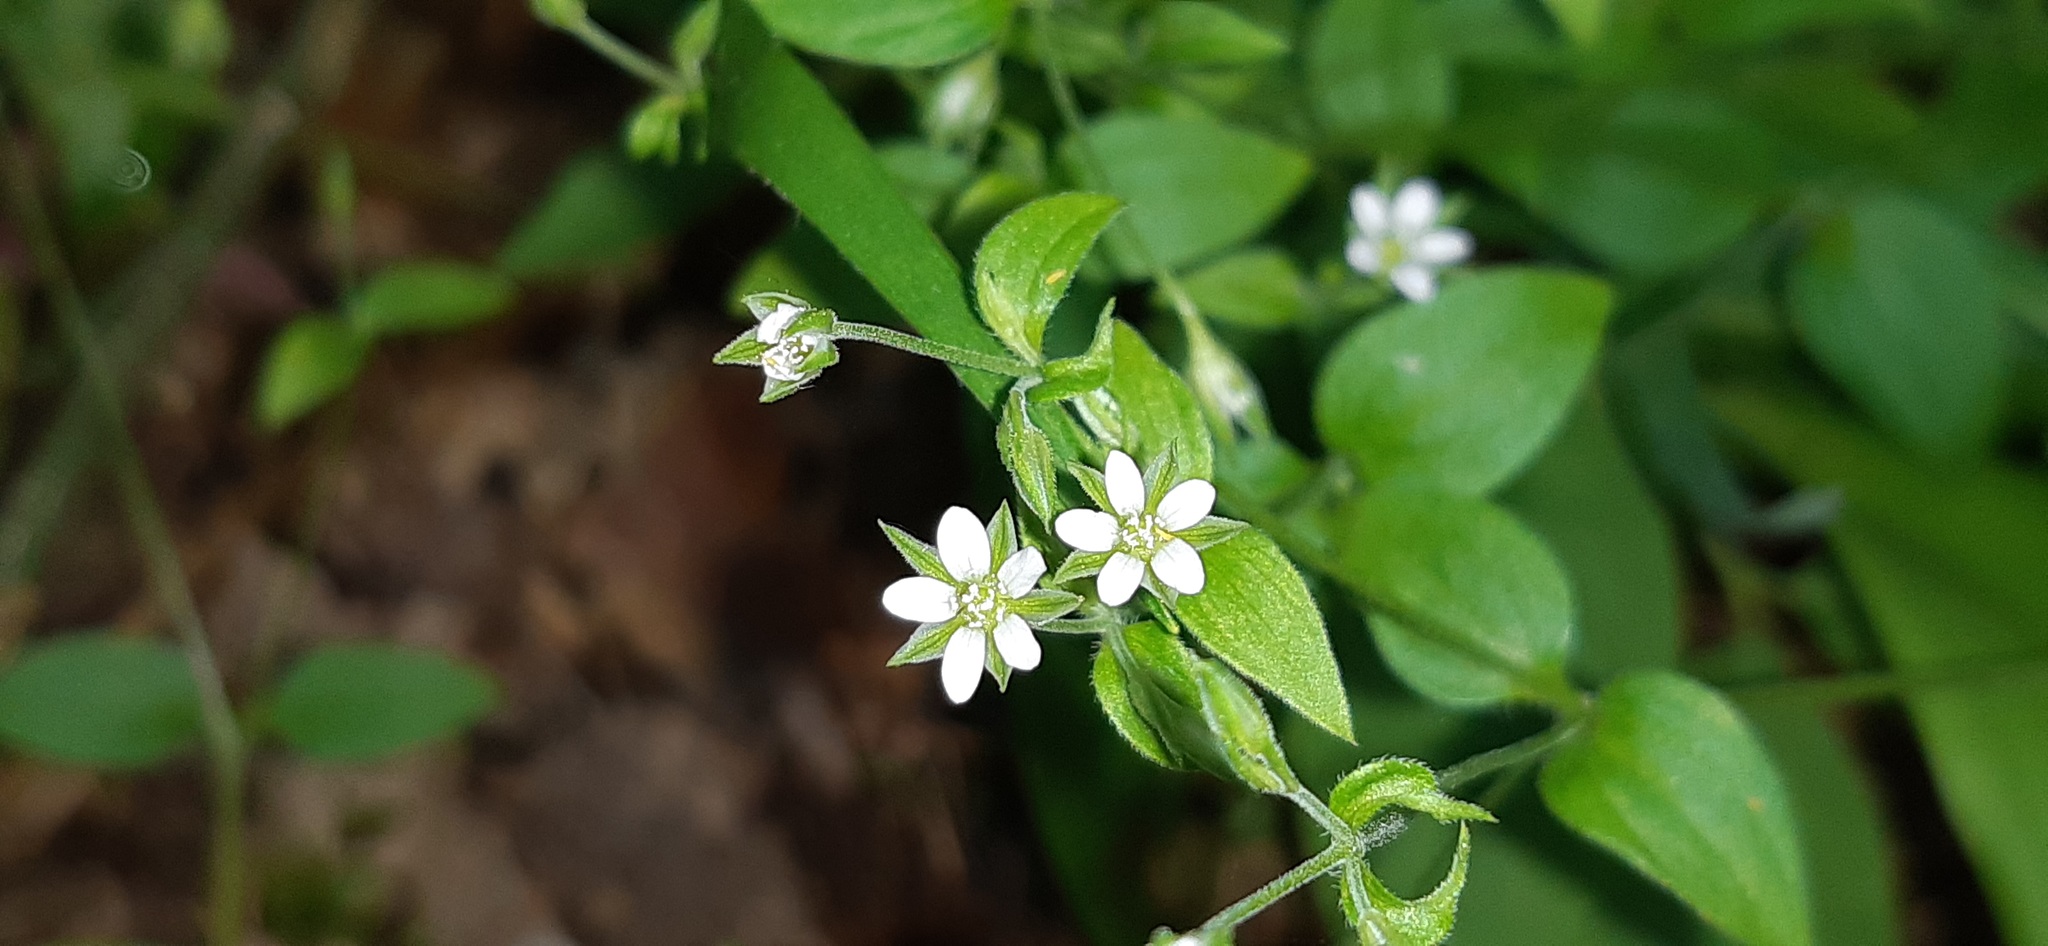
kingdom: Plantae
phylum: Tracheophyta
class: Magnoliopsida
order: Caryophyllales
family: Caryophyllaceae
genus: Moehringia
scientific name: Moehringia trinervia
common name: Three-nerved sandwort
